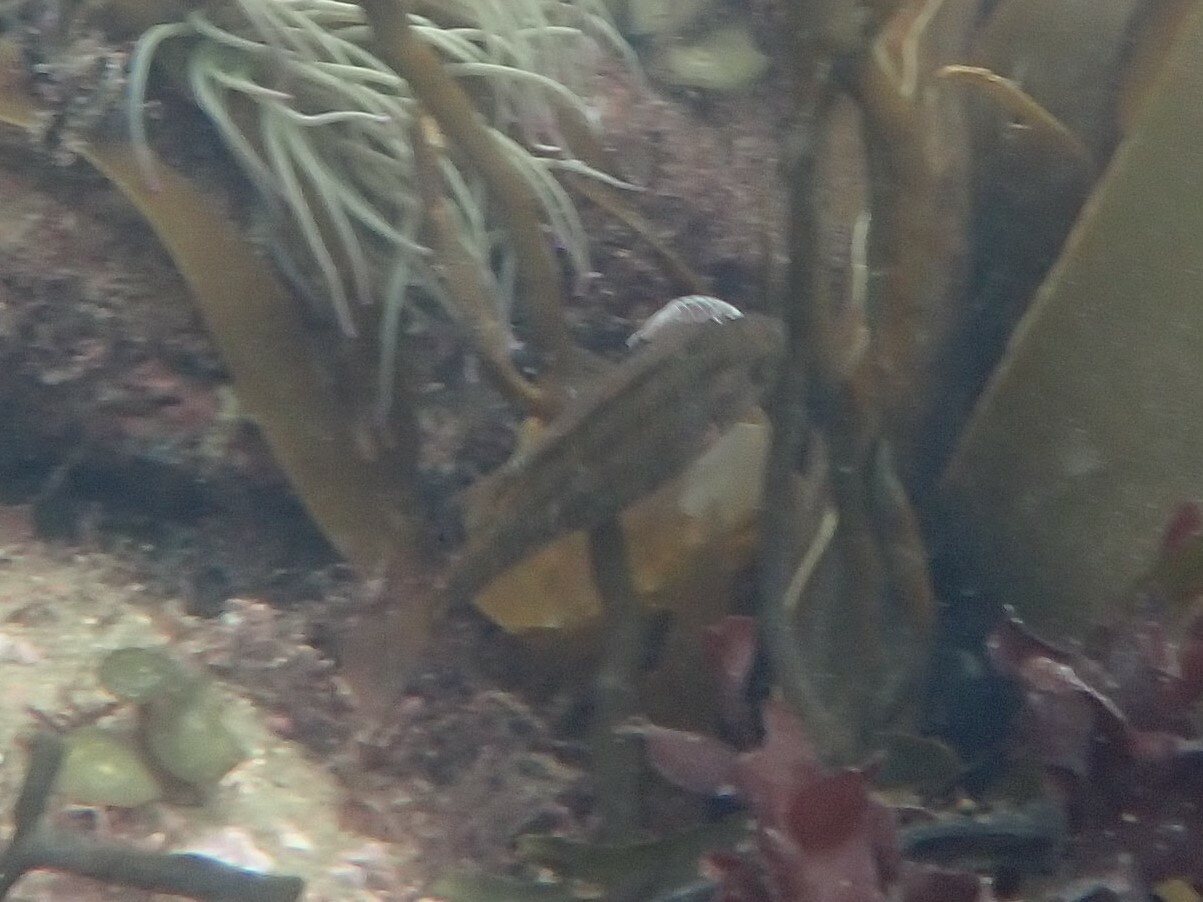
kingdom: Animalia
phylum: Arthropoda
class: Malacostraca
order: Isopoda
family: Cymothoidae
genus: Anilocra
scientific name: Anilocra
